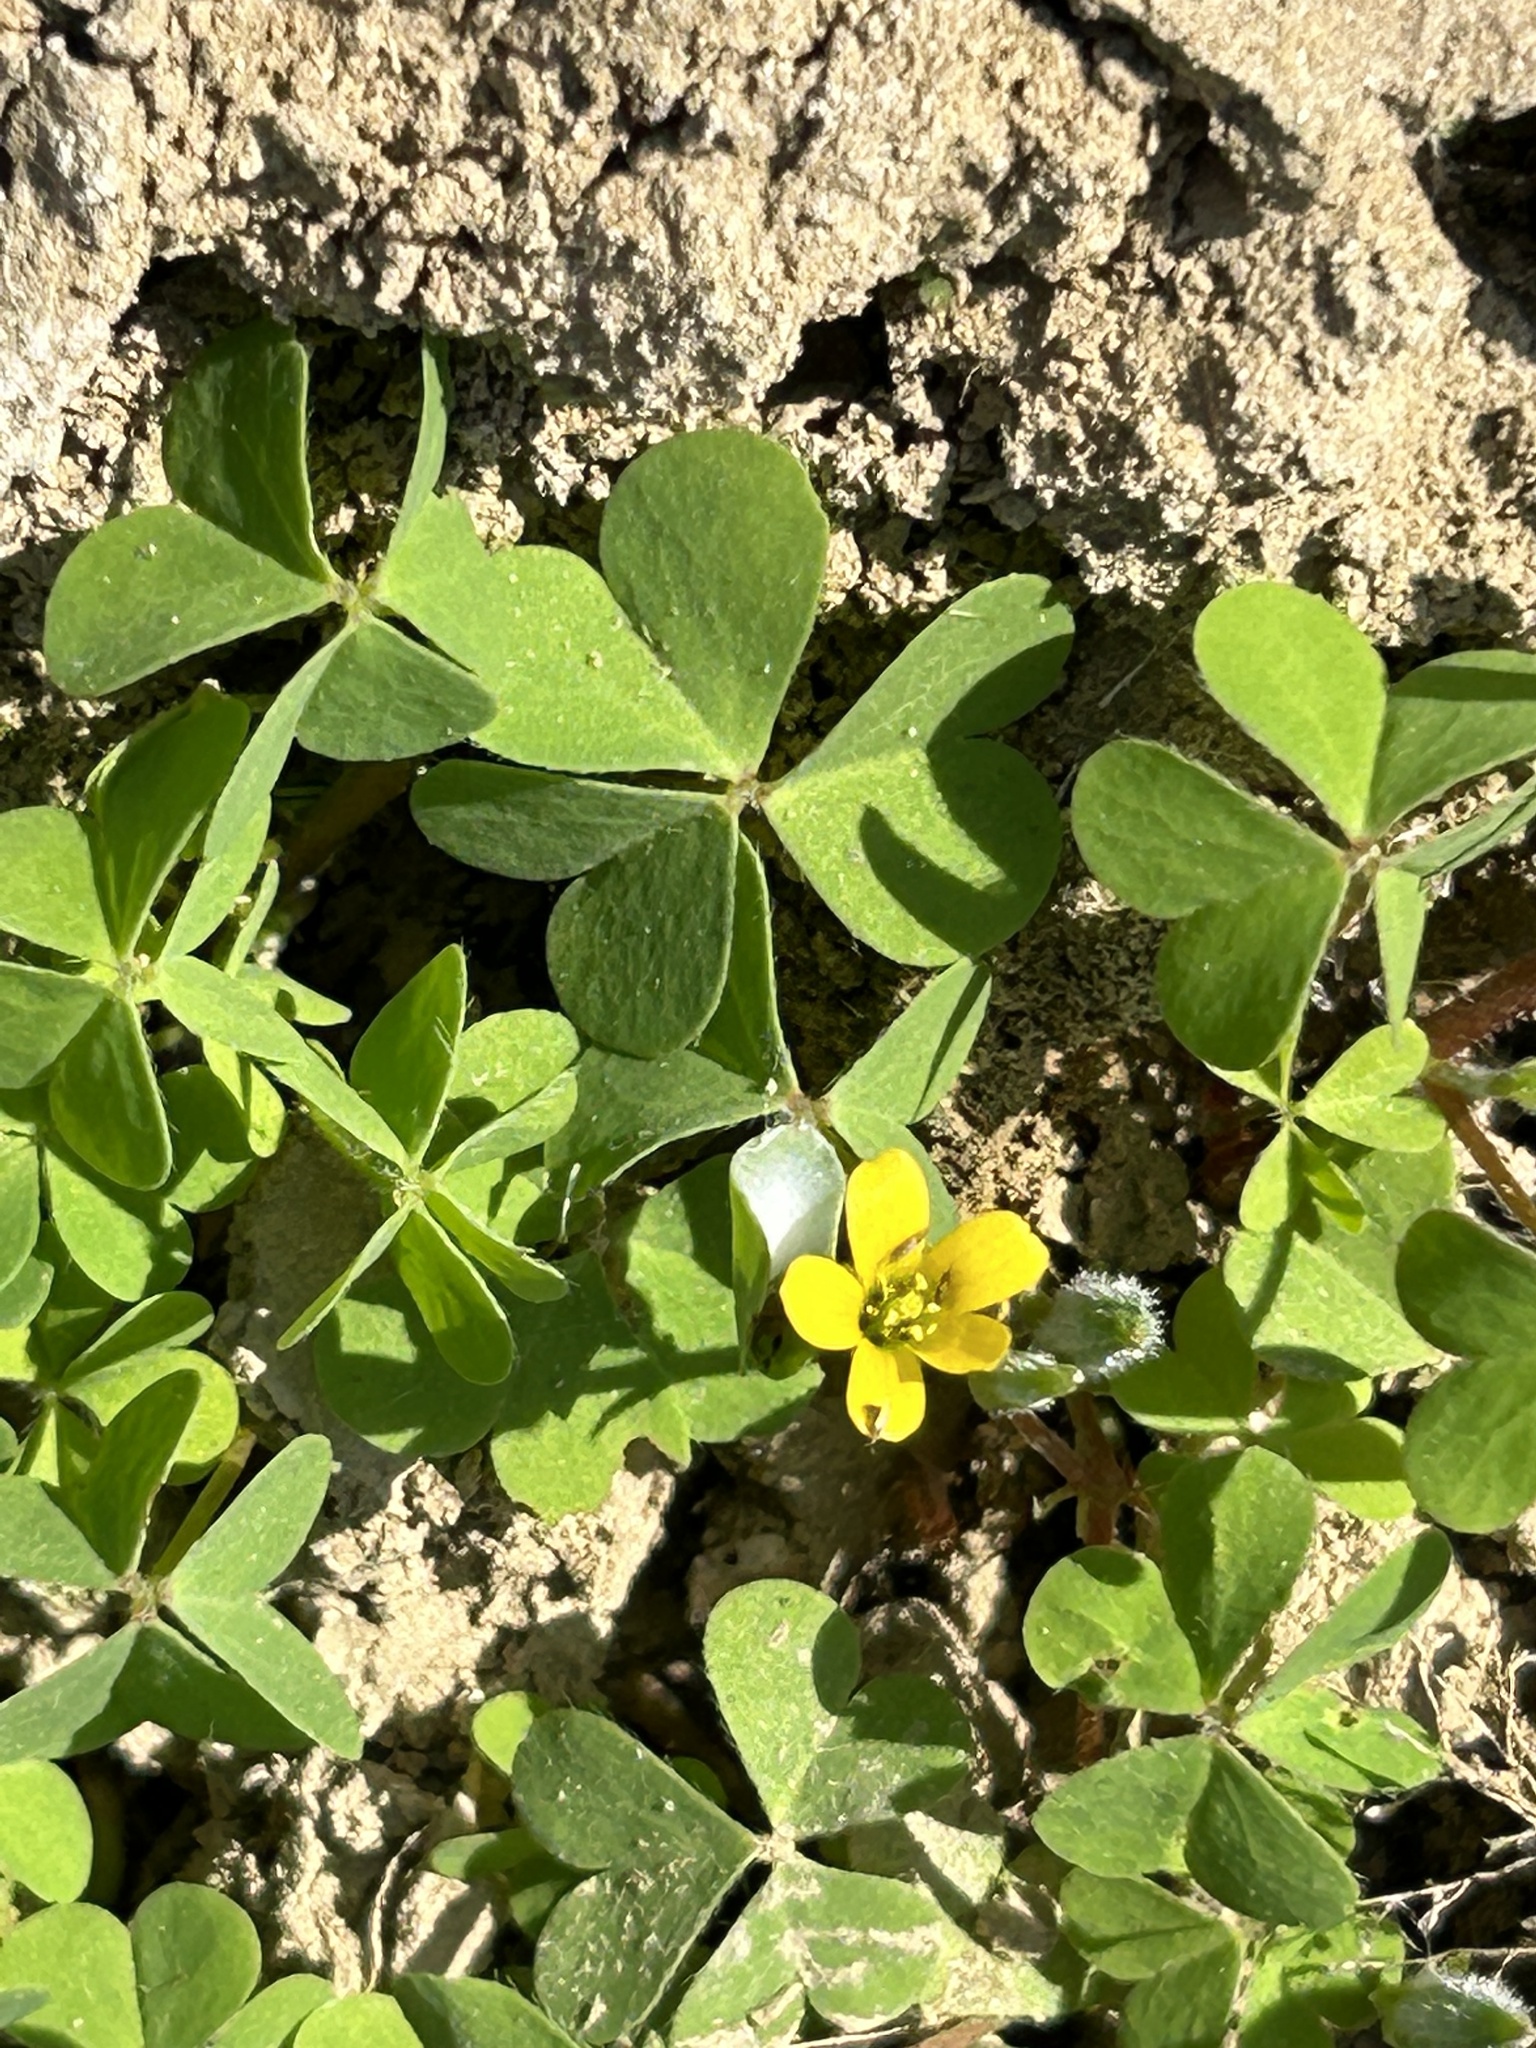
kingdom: Plantae
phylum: Tracheophyta
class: Magnoliopsida
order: Oxalidales
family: Oxalidaceae
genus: Oxalis
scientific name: Oxalis corniculata
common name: Procumbent yellow-sorrel
